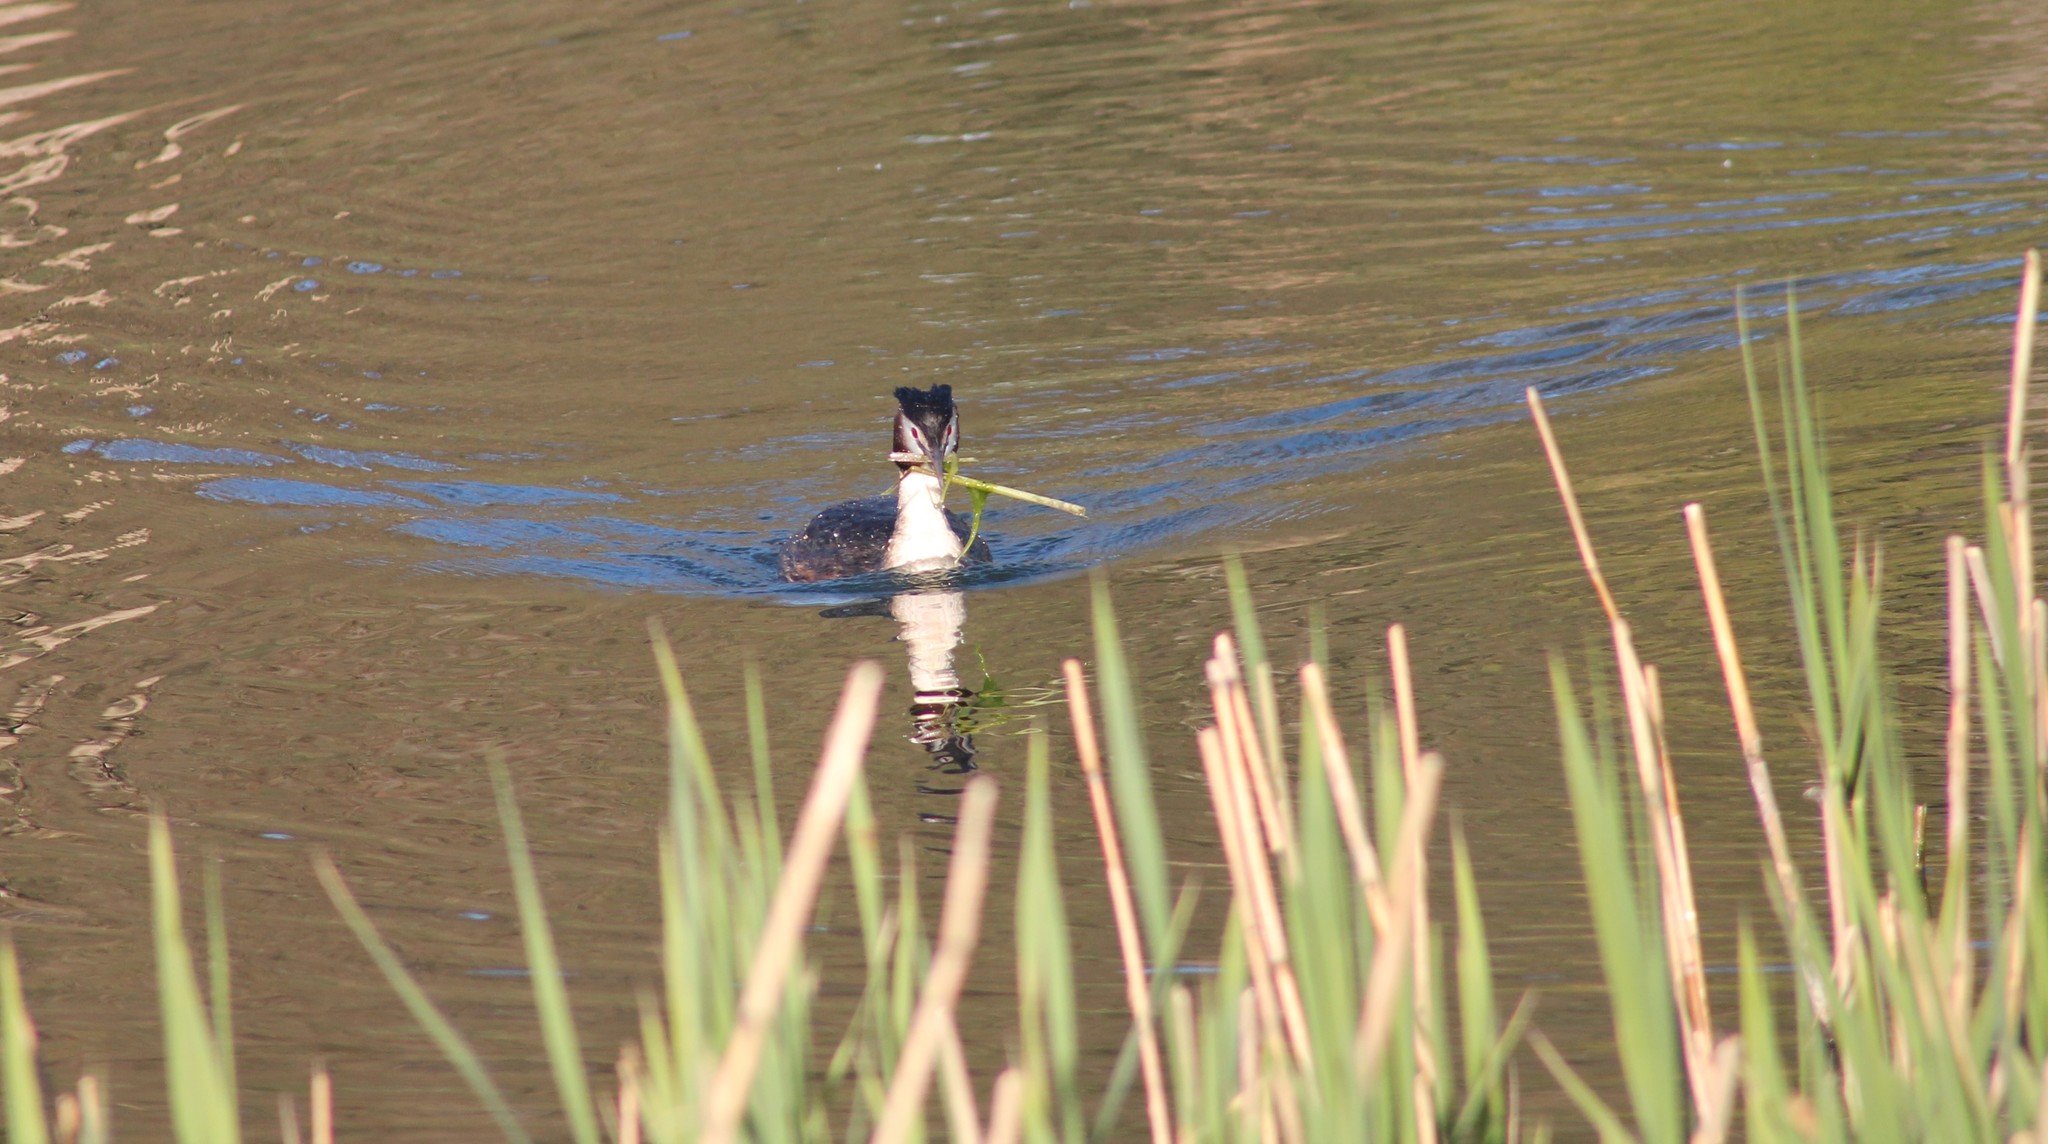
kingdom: Animalia
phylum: Chordata
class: Aves
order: Podicipediformes
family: Podicipedidae
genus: Podiceps
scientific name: Podiceps cristatus
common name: Great crested grebe
